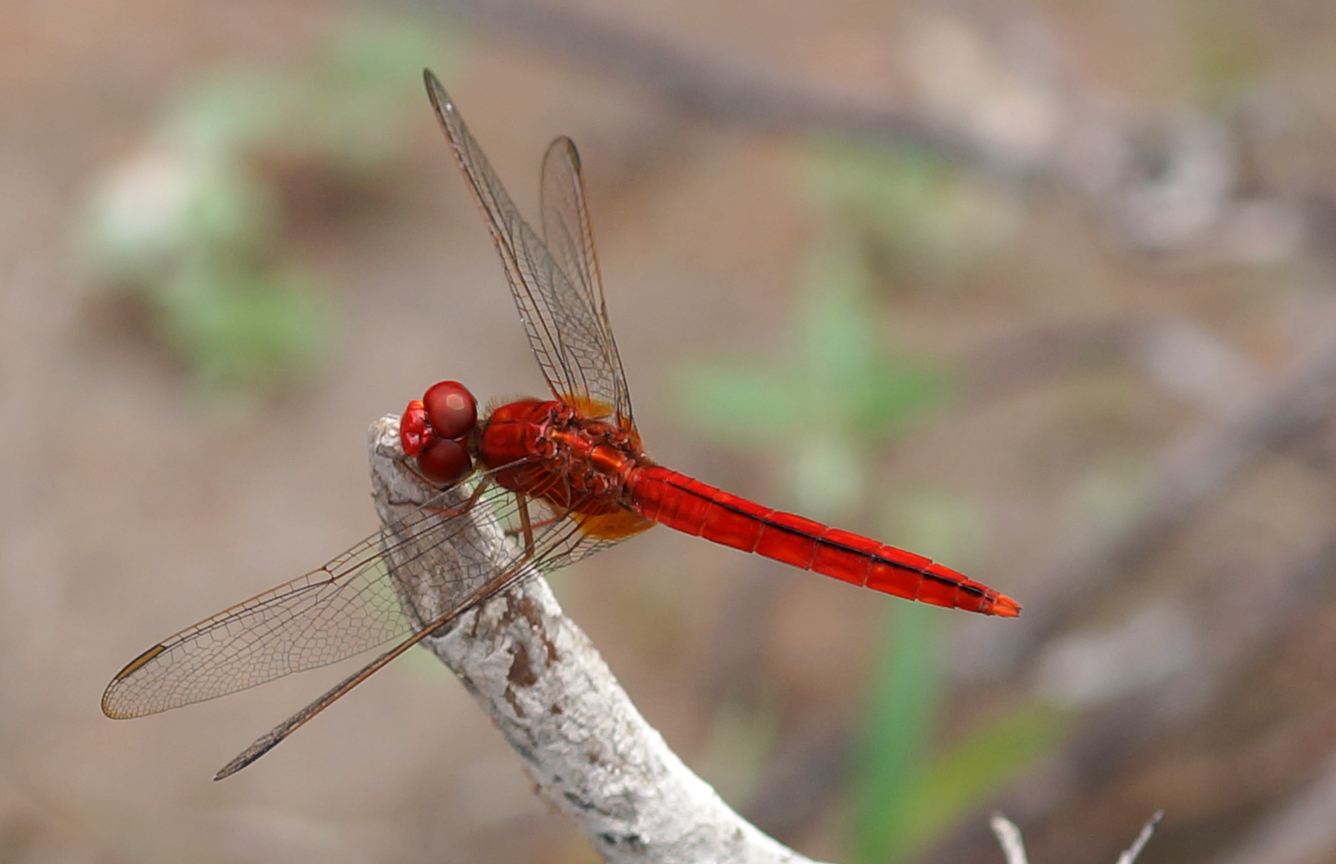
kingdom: Animalia
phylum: Arthropoda
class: Insecta
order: Odonata
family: Libellulidae
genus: Crocothemis
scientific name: Crocothemis servilia
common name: Scarlet skimmer
